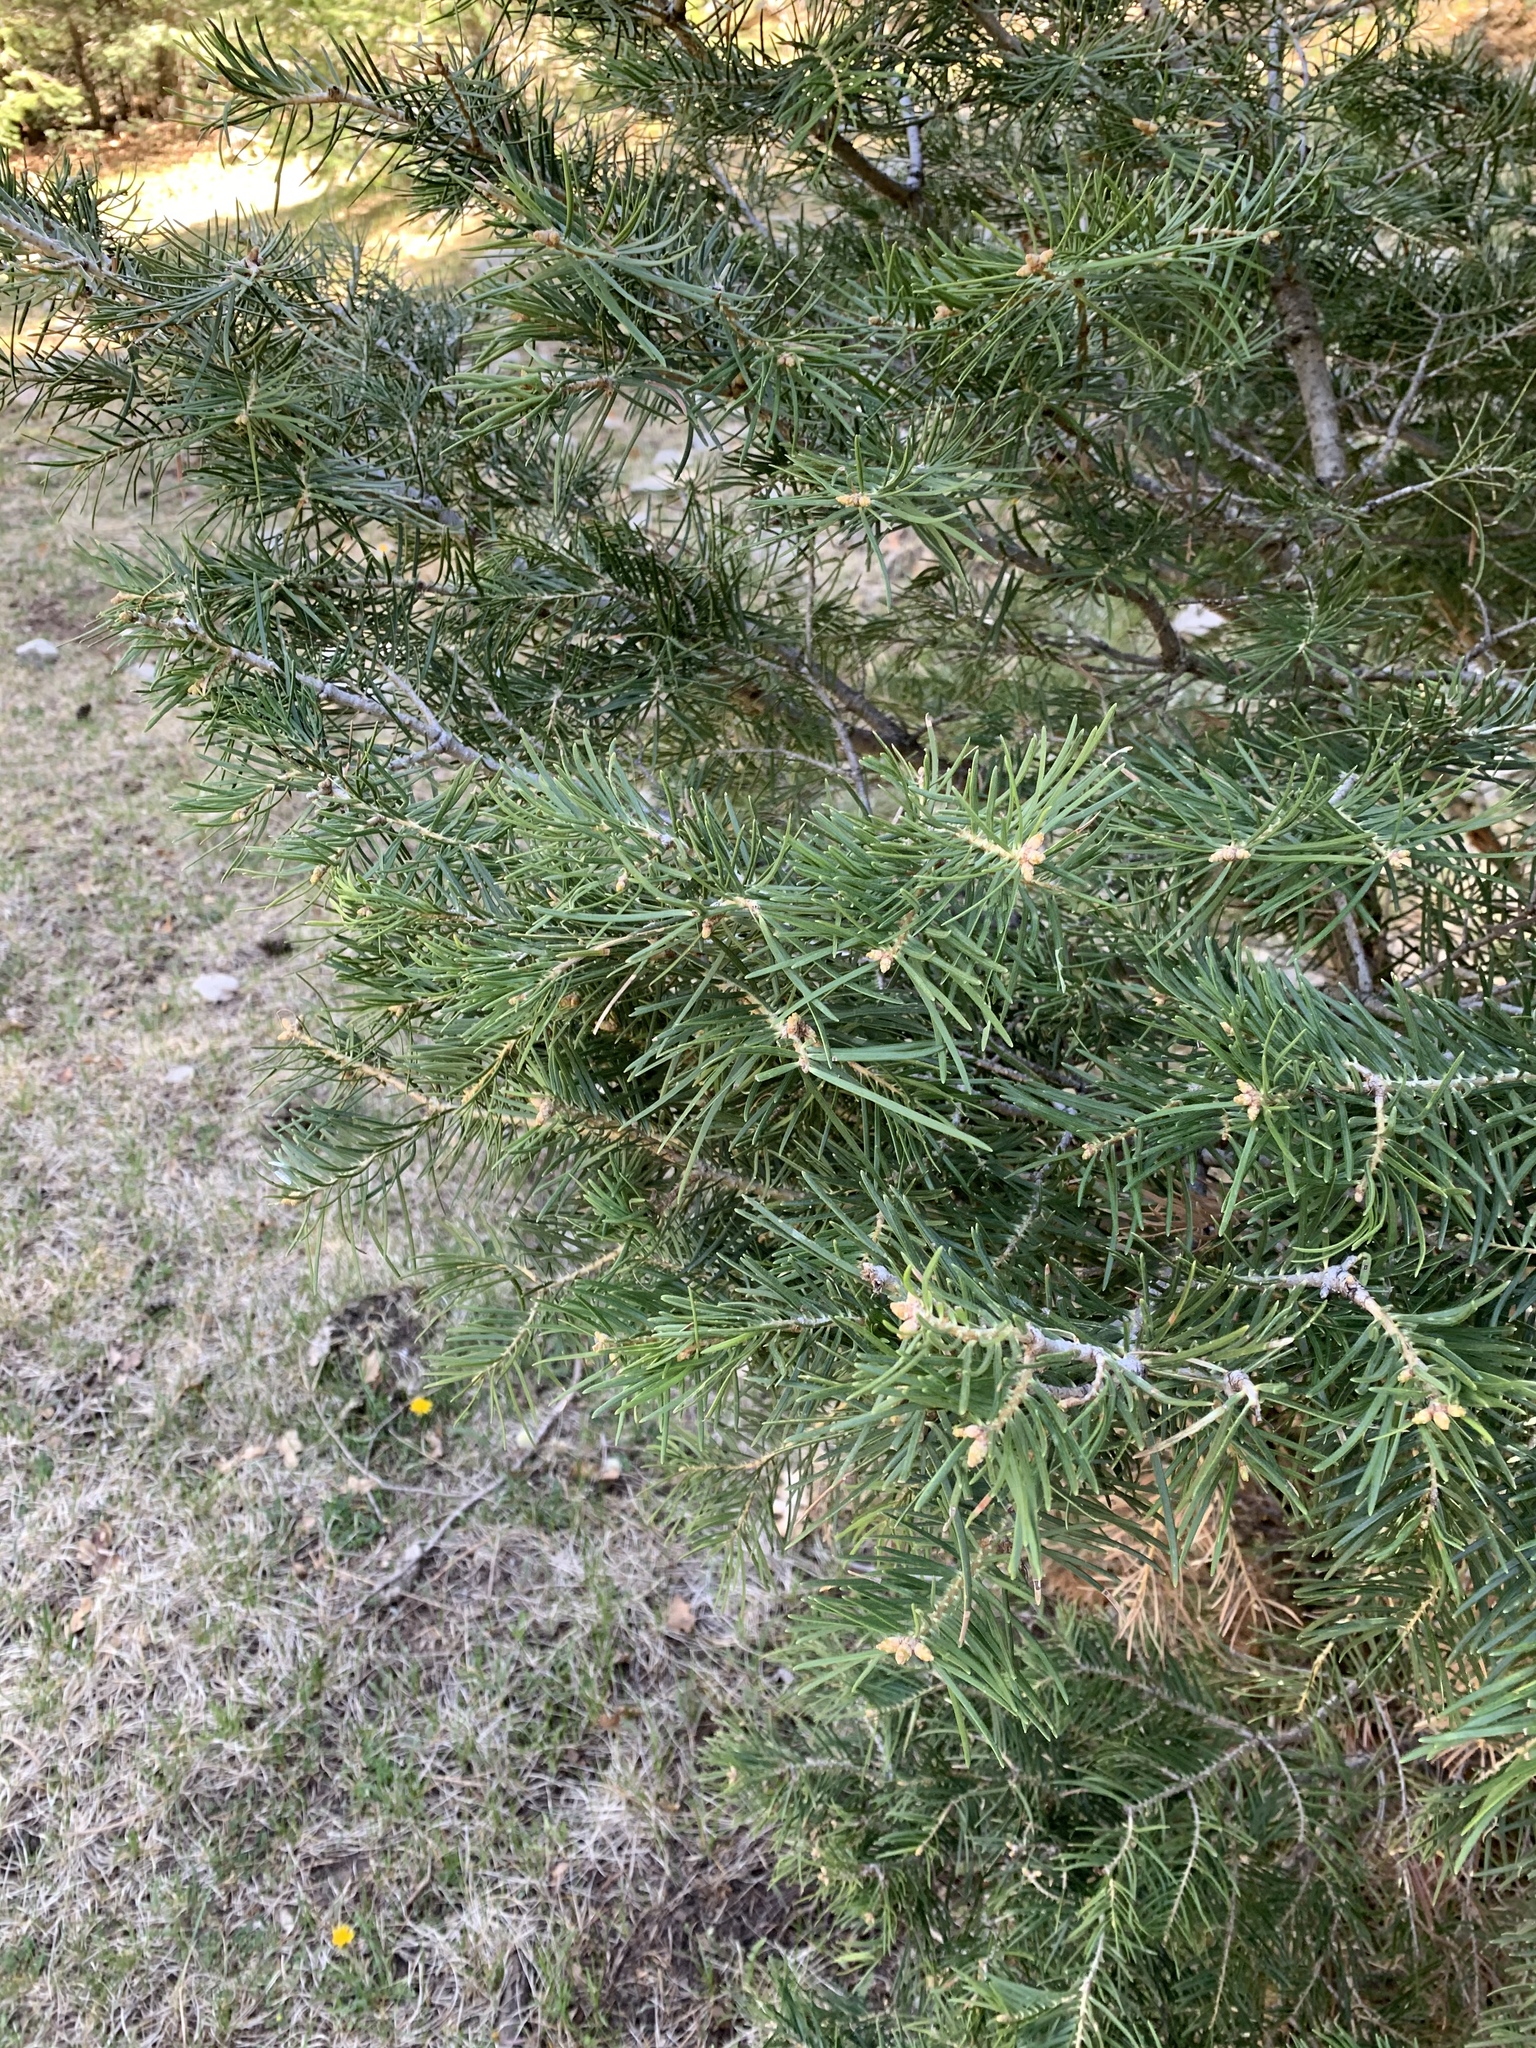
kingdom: Plantae
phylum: Tracheophyta
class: Pinopsida
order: Pinales
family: Pinaceae
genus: Abies
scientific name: Abies concolor
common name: Colorado fir
